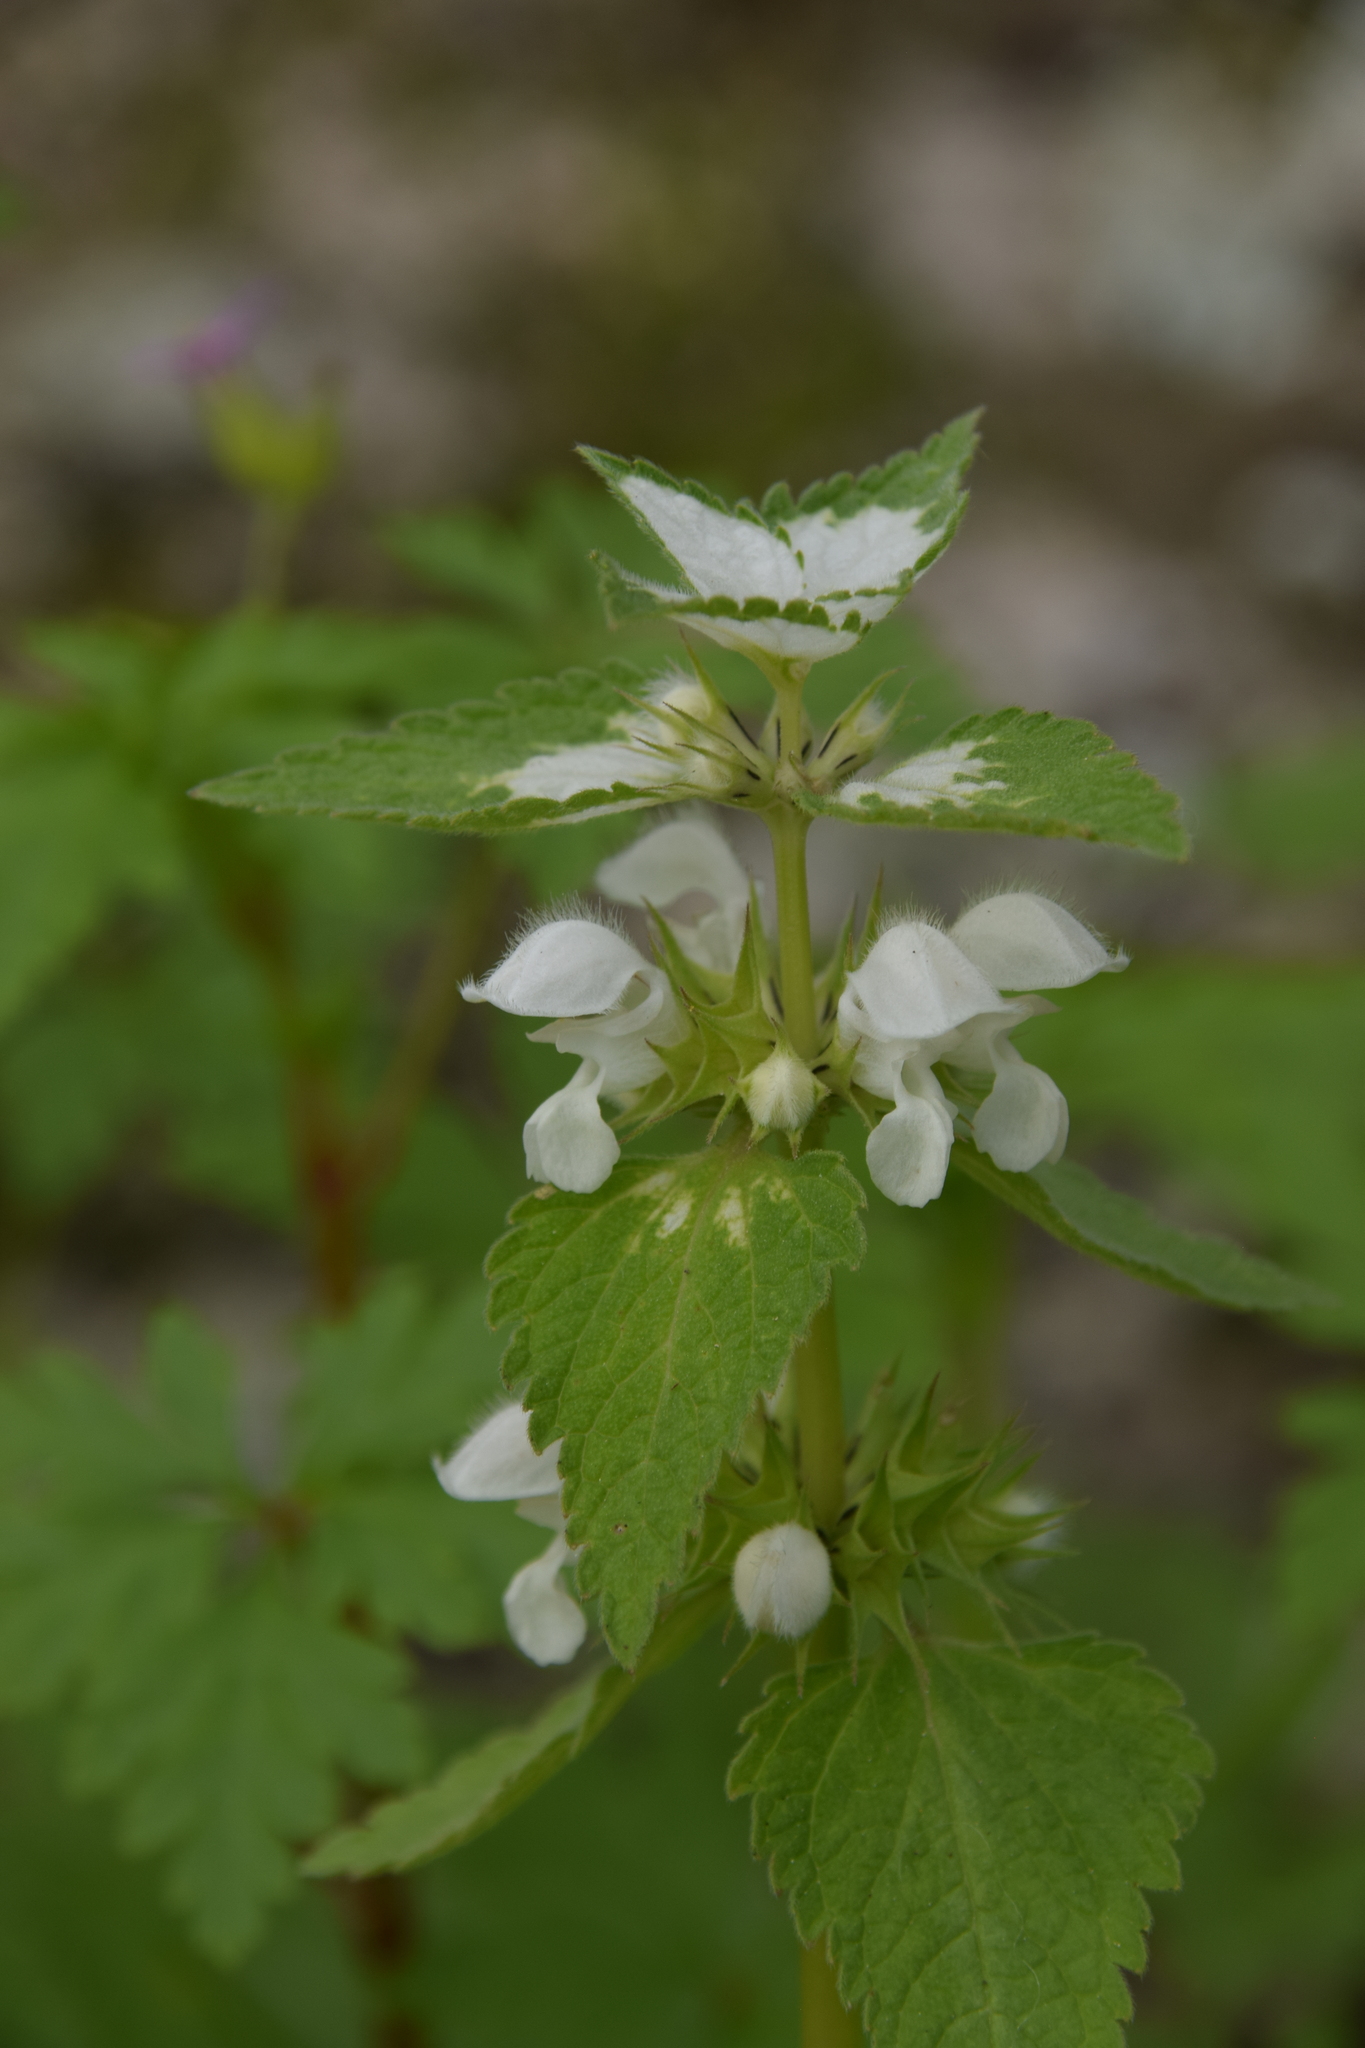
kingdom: Plantae
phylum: Tracheophyta
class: Magnoliopsida
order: Lamiales
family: Lamiaceae
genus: Lamium
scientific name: Lamium moschatum
